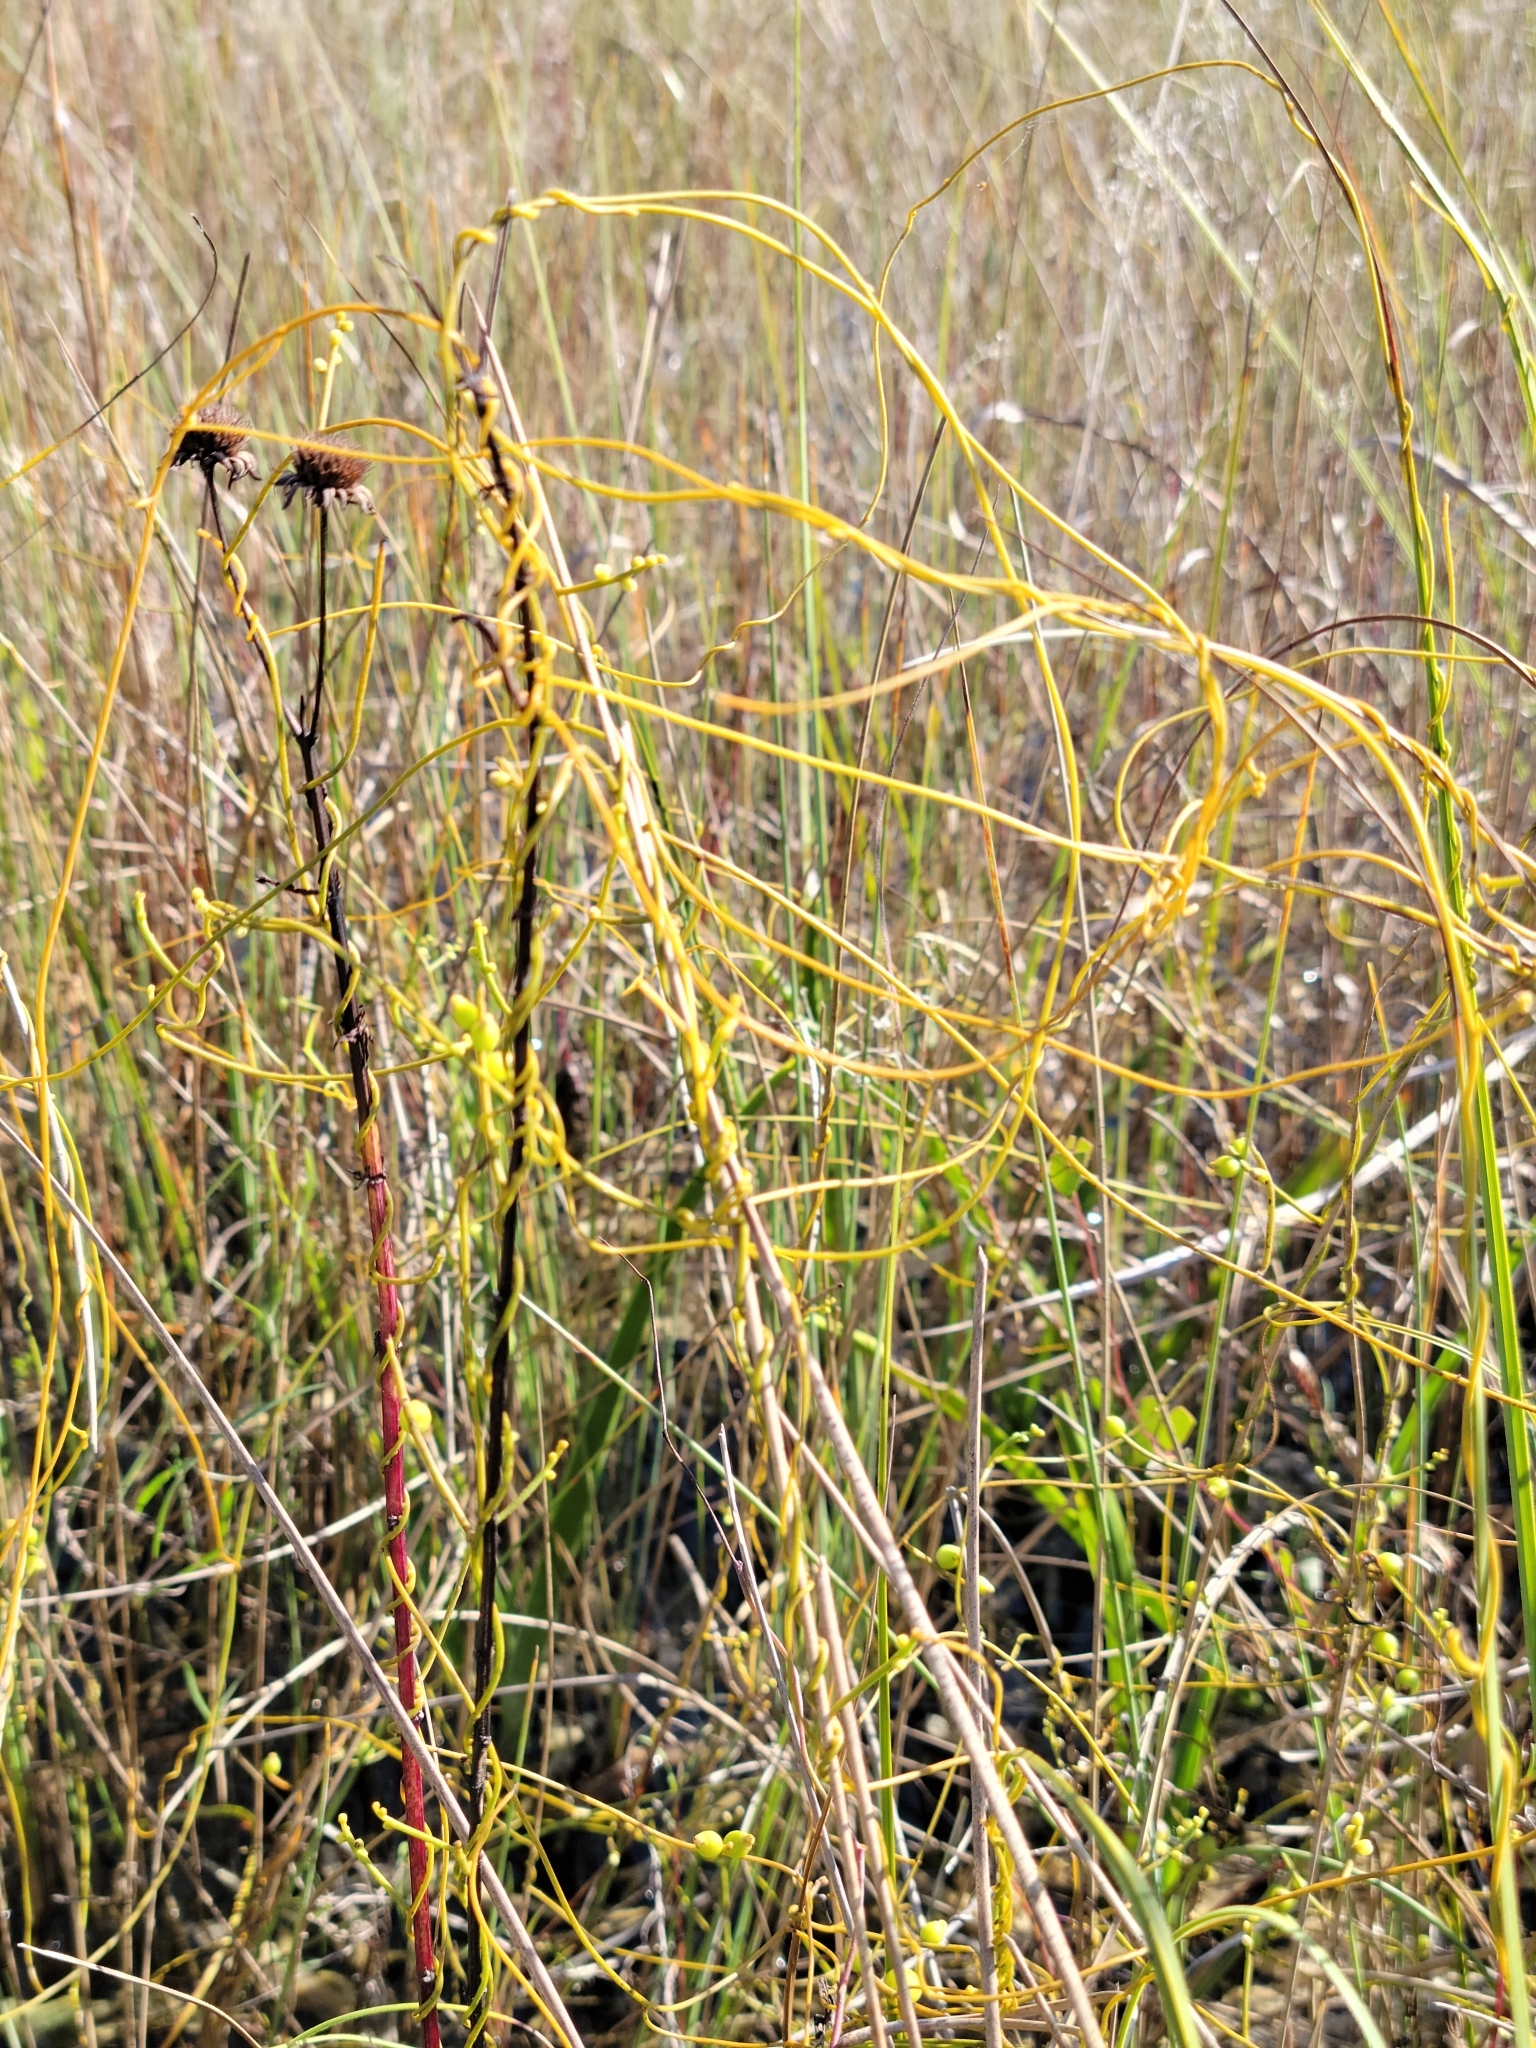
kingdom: Plantae
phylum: Tracheophyta
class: Magnoliopsida
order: Laurales
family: Lauraceae
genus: Cassytha
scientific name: Cassytha filiformis
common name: Dodder-laurel
